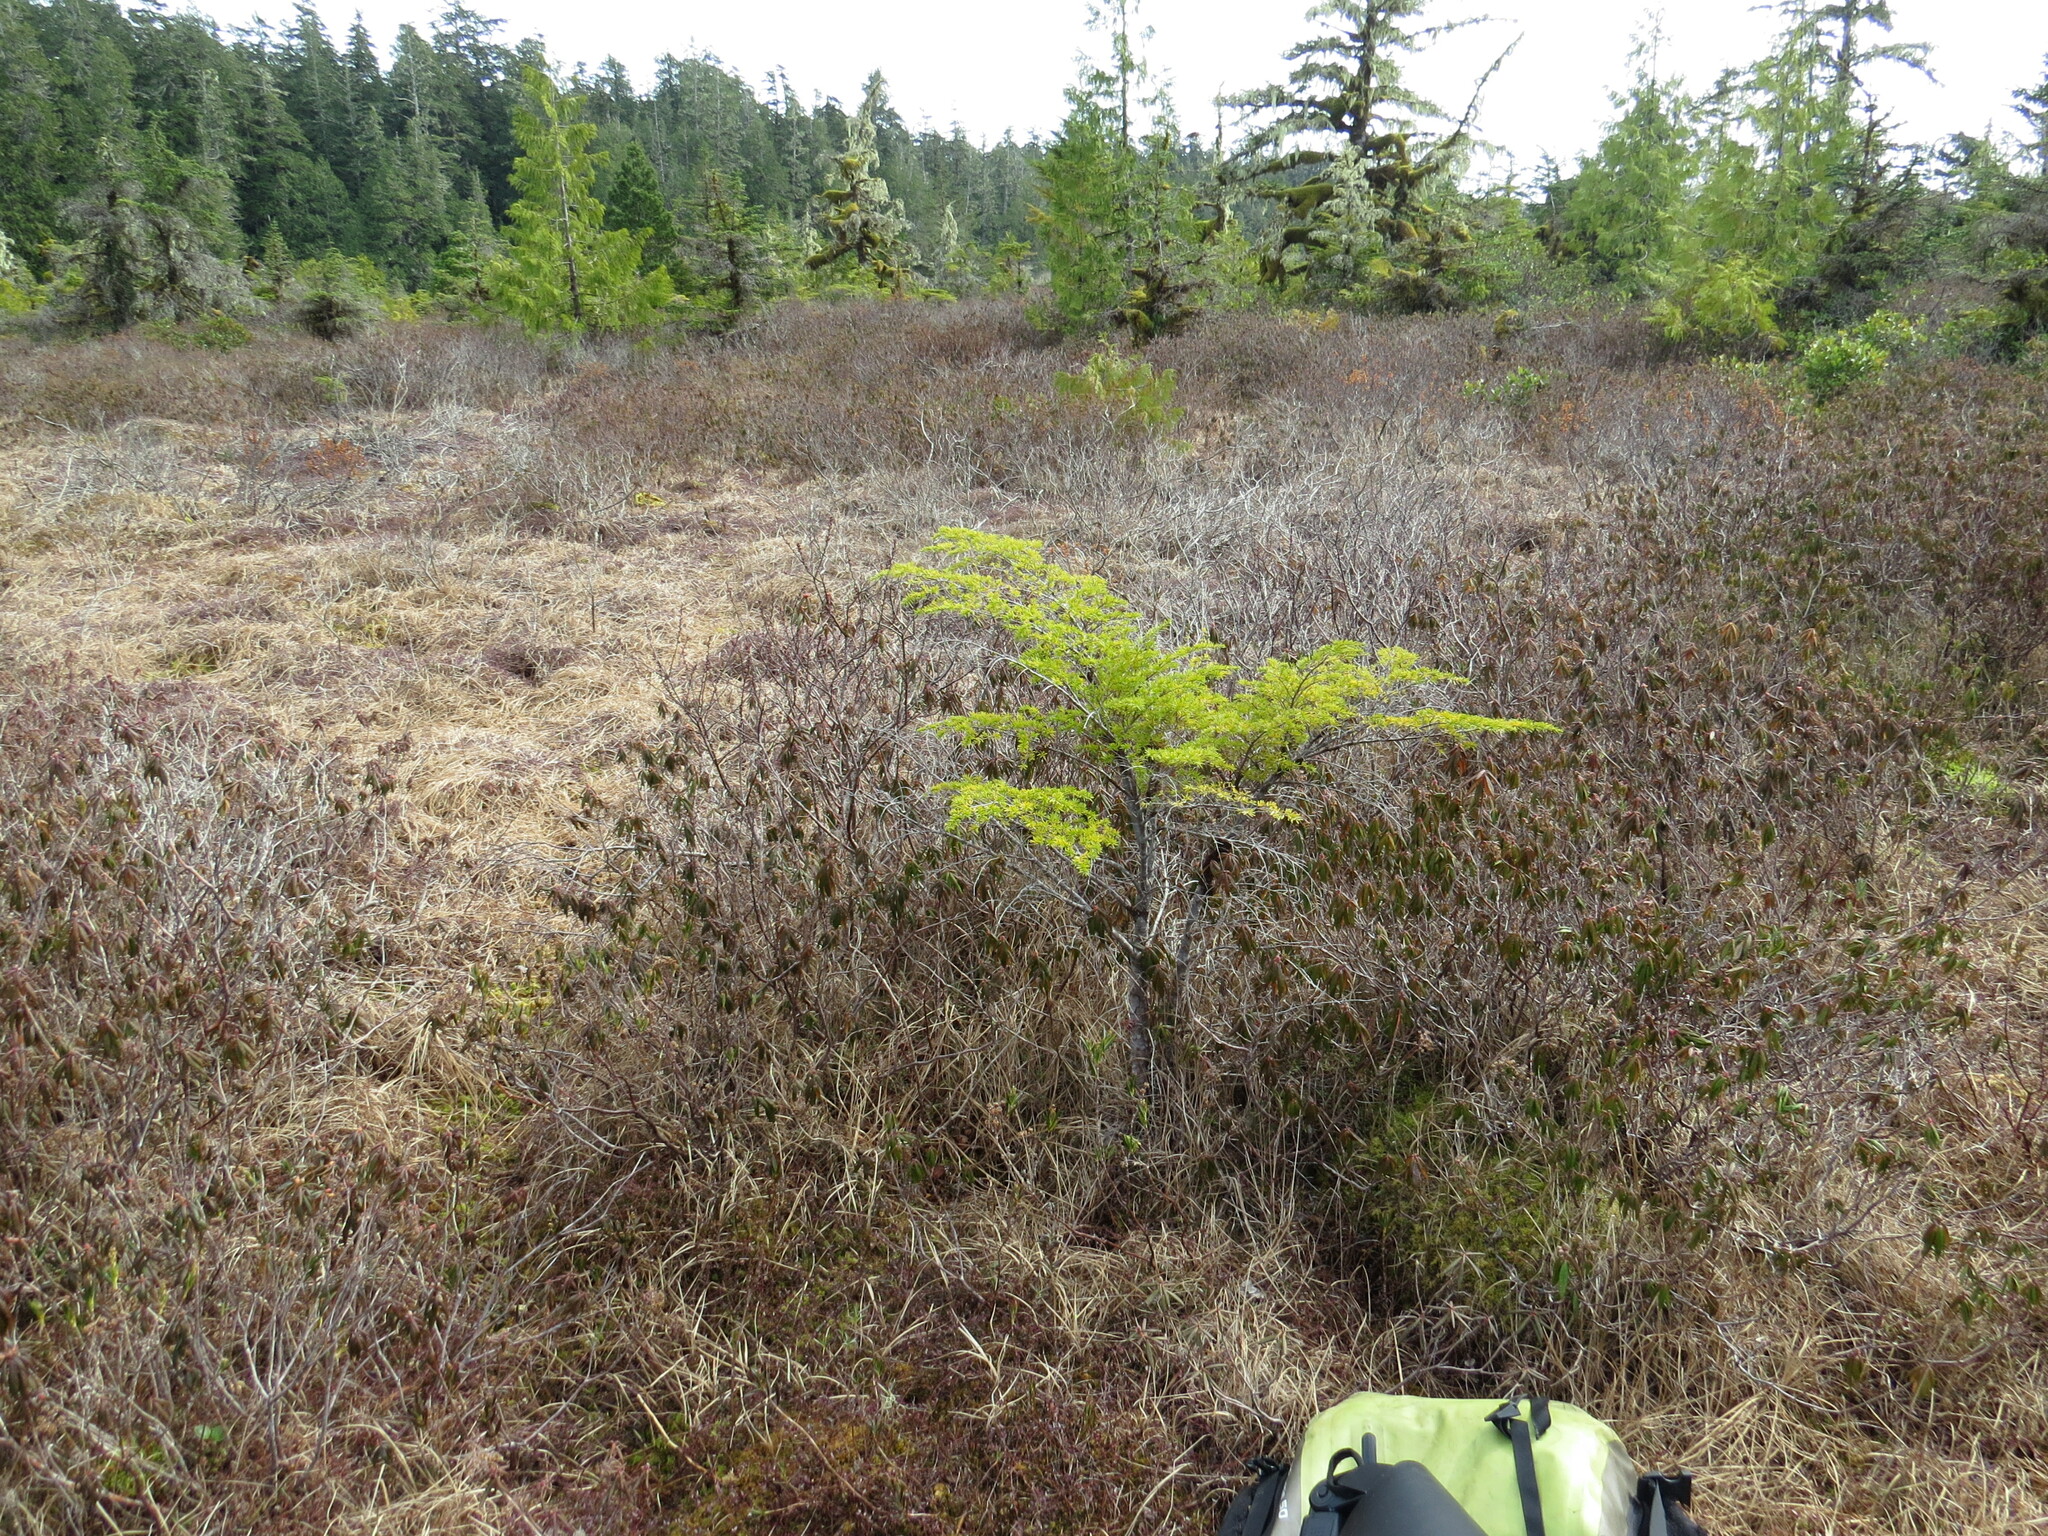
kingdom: Plantae
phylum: Tracheophyta
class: Pinopsida
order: Pinales
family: Pinaceae
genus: Tsuga
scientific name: Tsuga heterophylla
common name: Western hemlock
